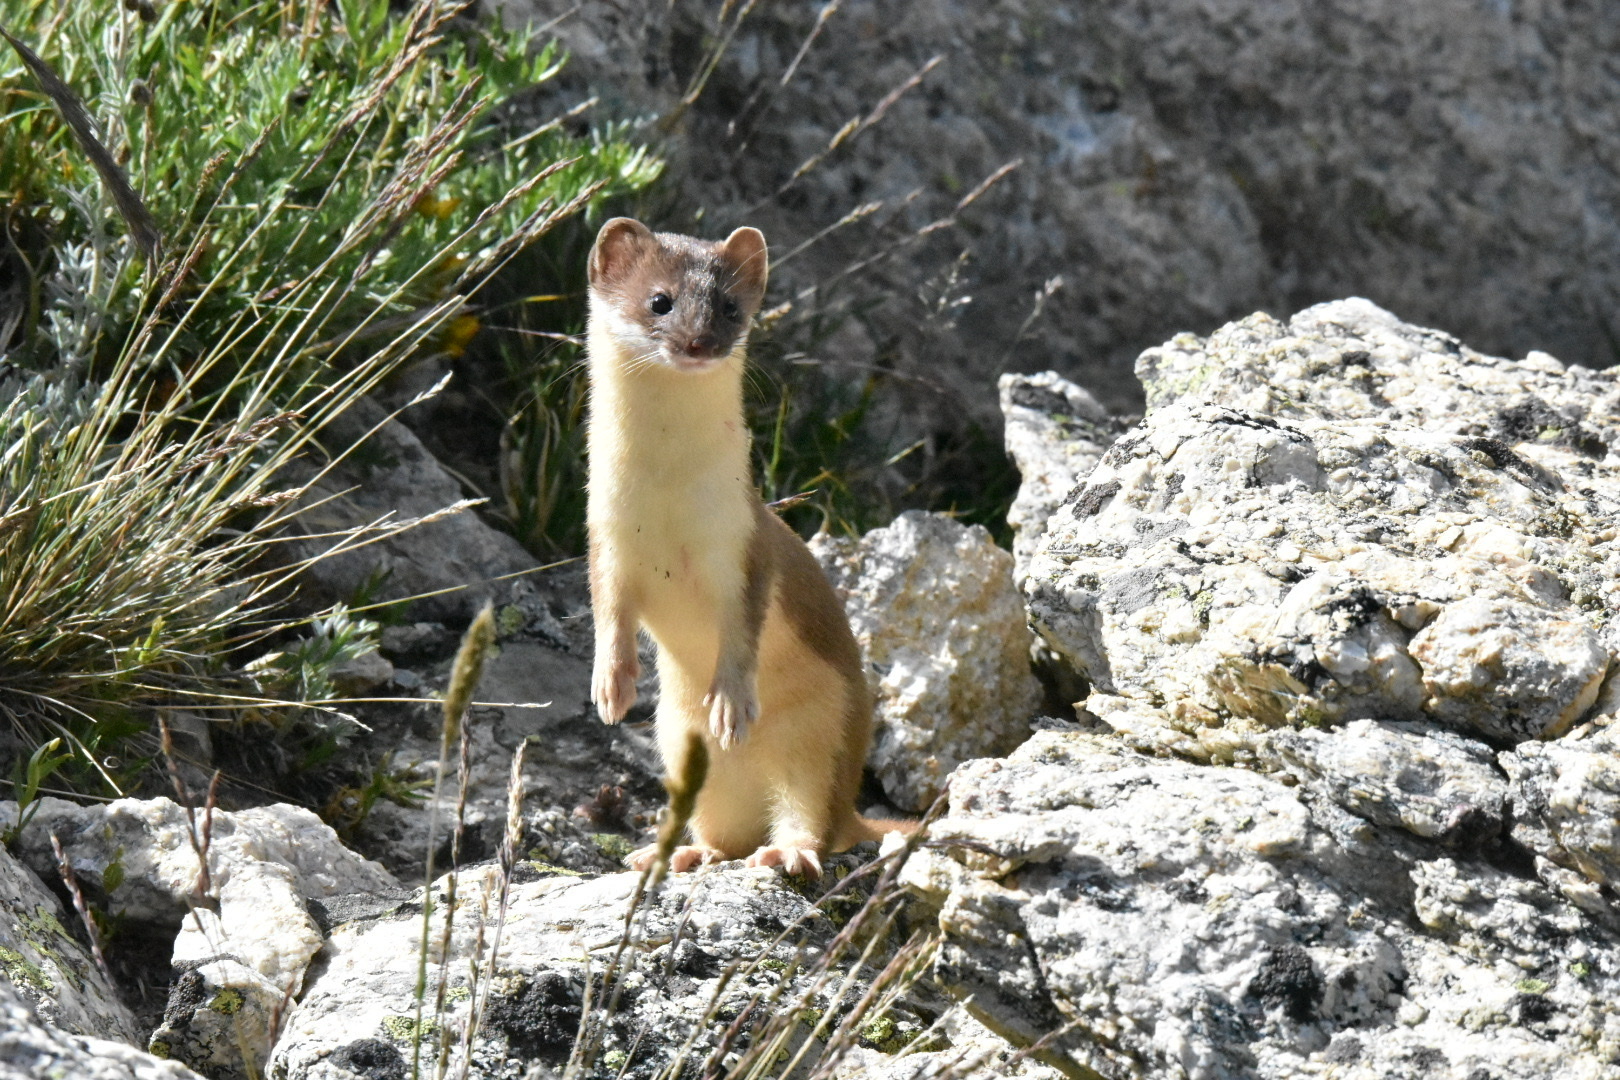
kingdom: Animalia
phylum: Chordata
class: Mammalia
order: Carnivora
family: Mustelidae
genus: Mustela
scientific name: Mustela
